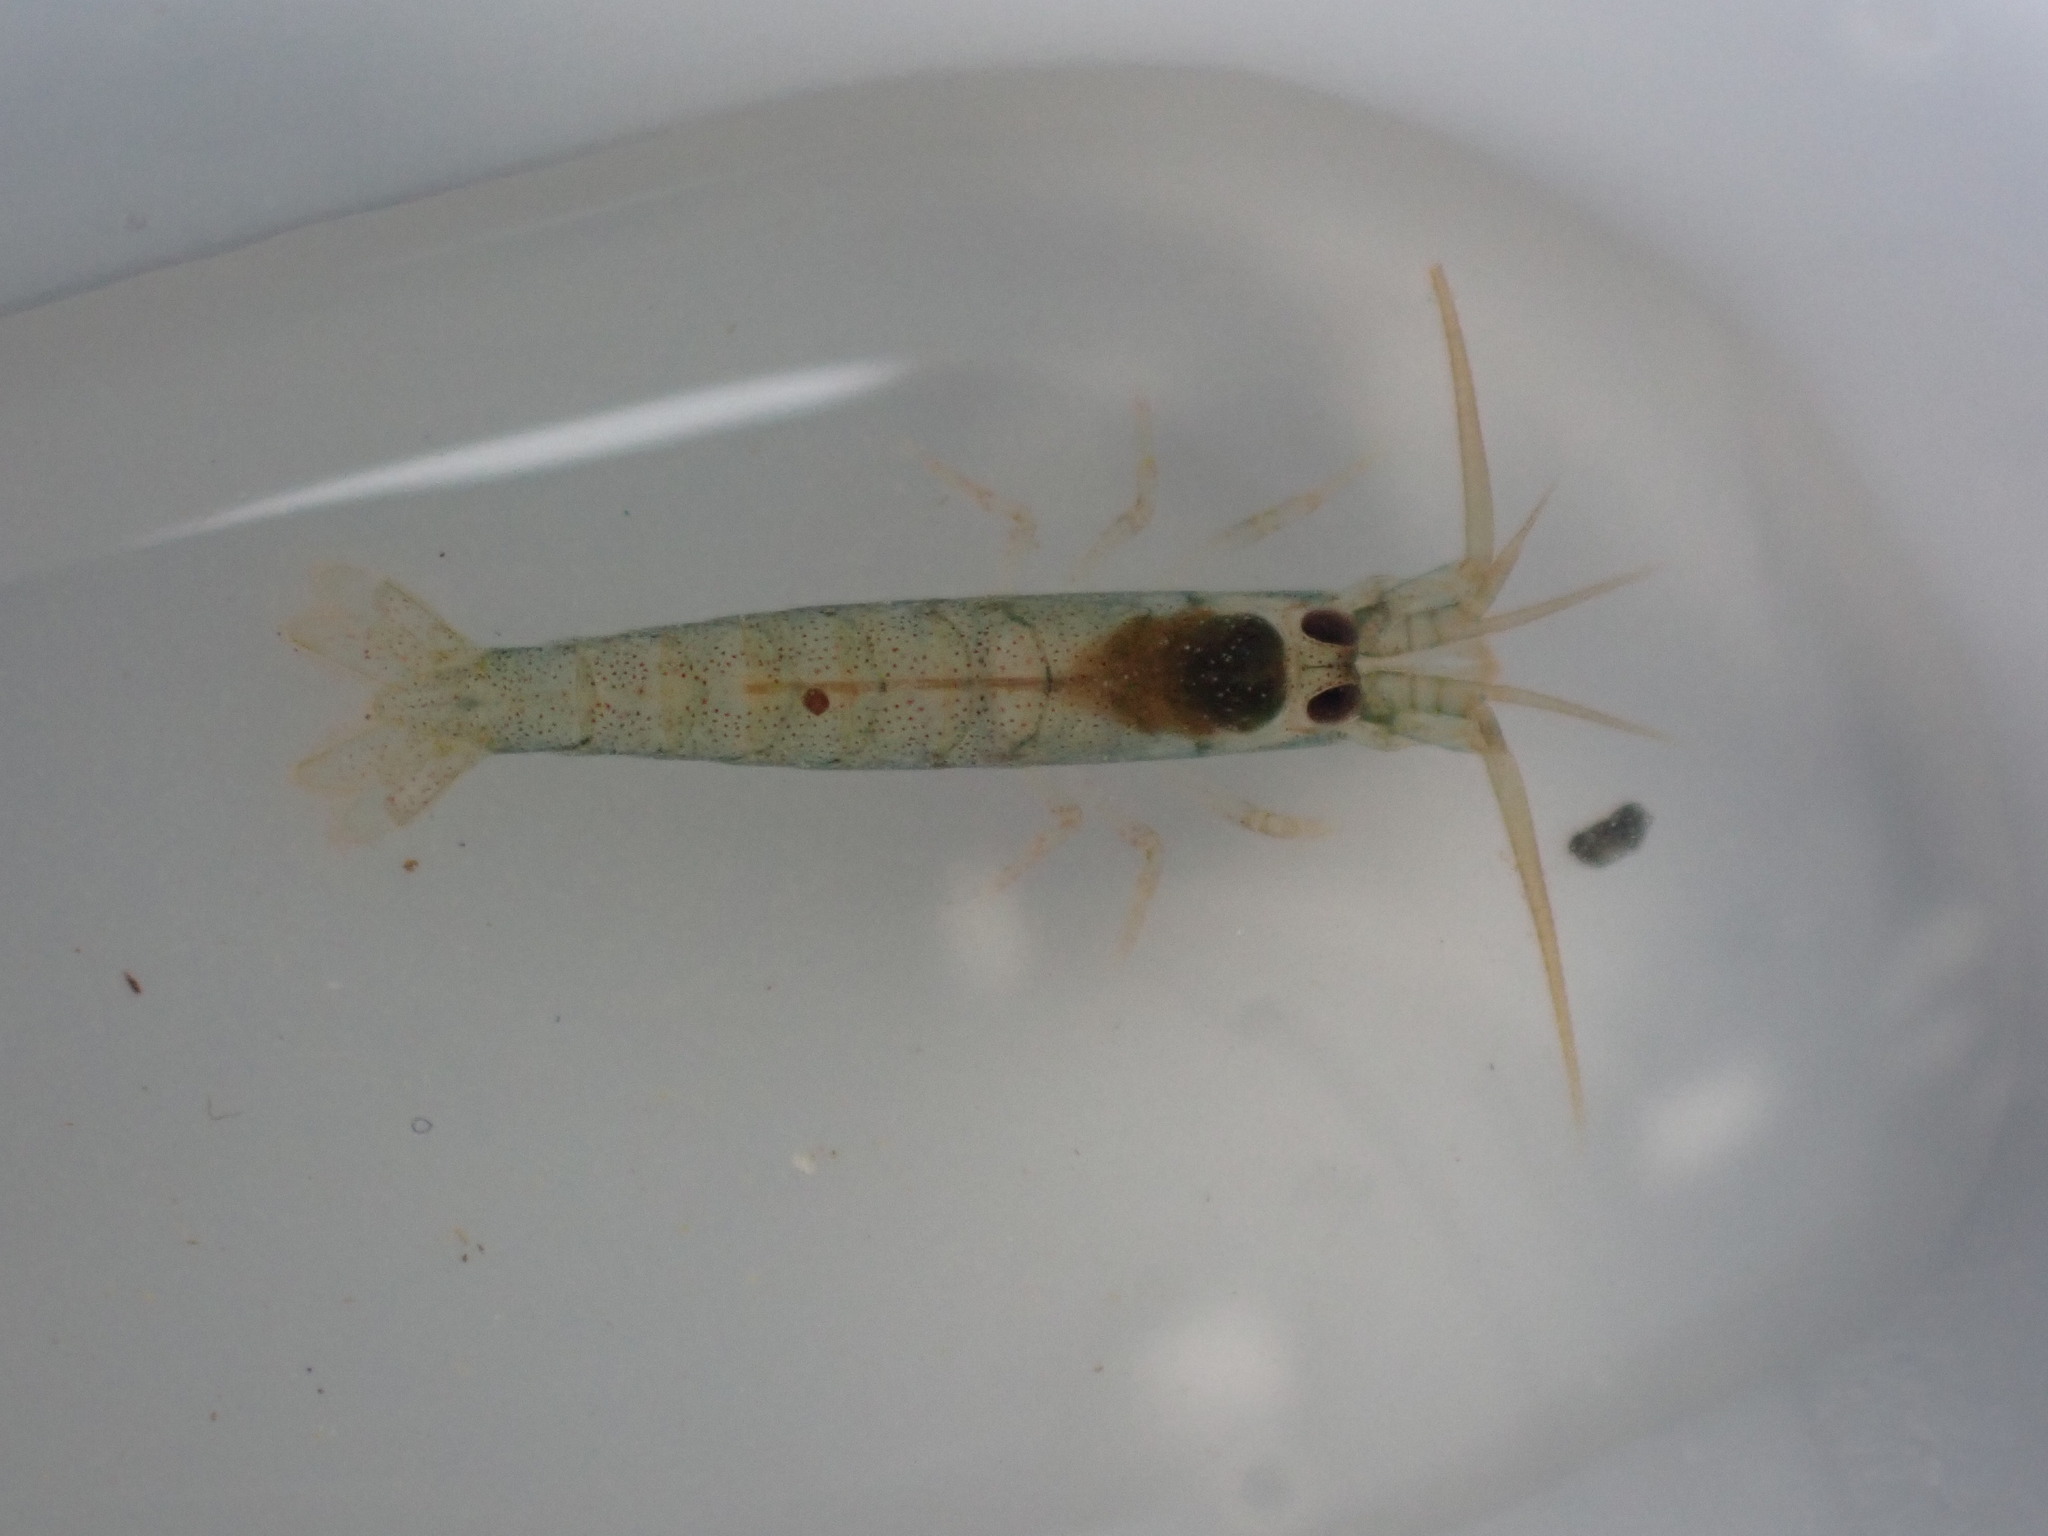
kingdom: Animalia
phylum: Arthropoda
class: Malacostraca
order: Decapoda
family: Alpheidae
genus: Betaeopsis
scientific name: Betaeopsis aequimanus
